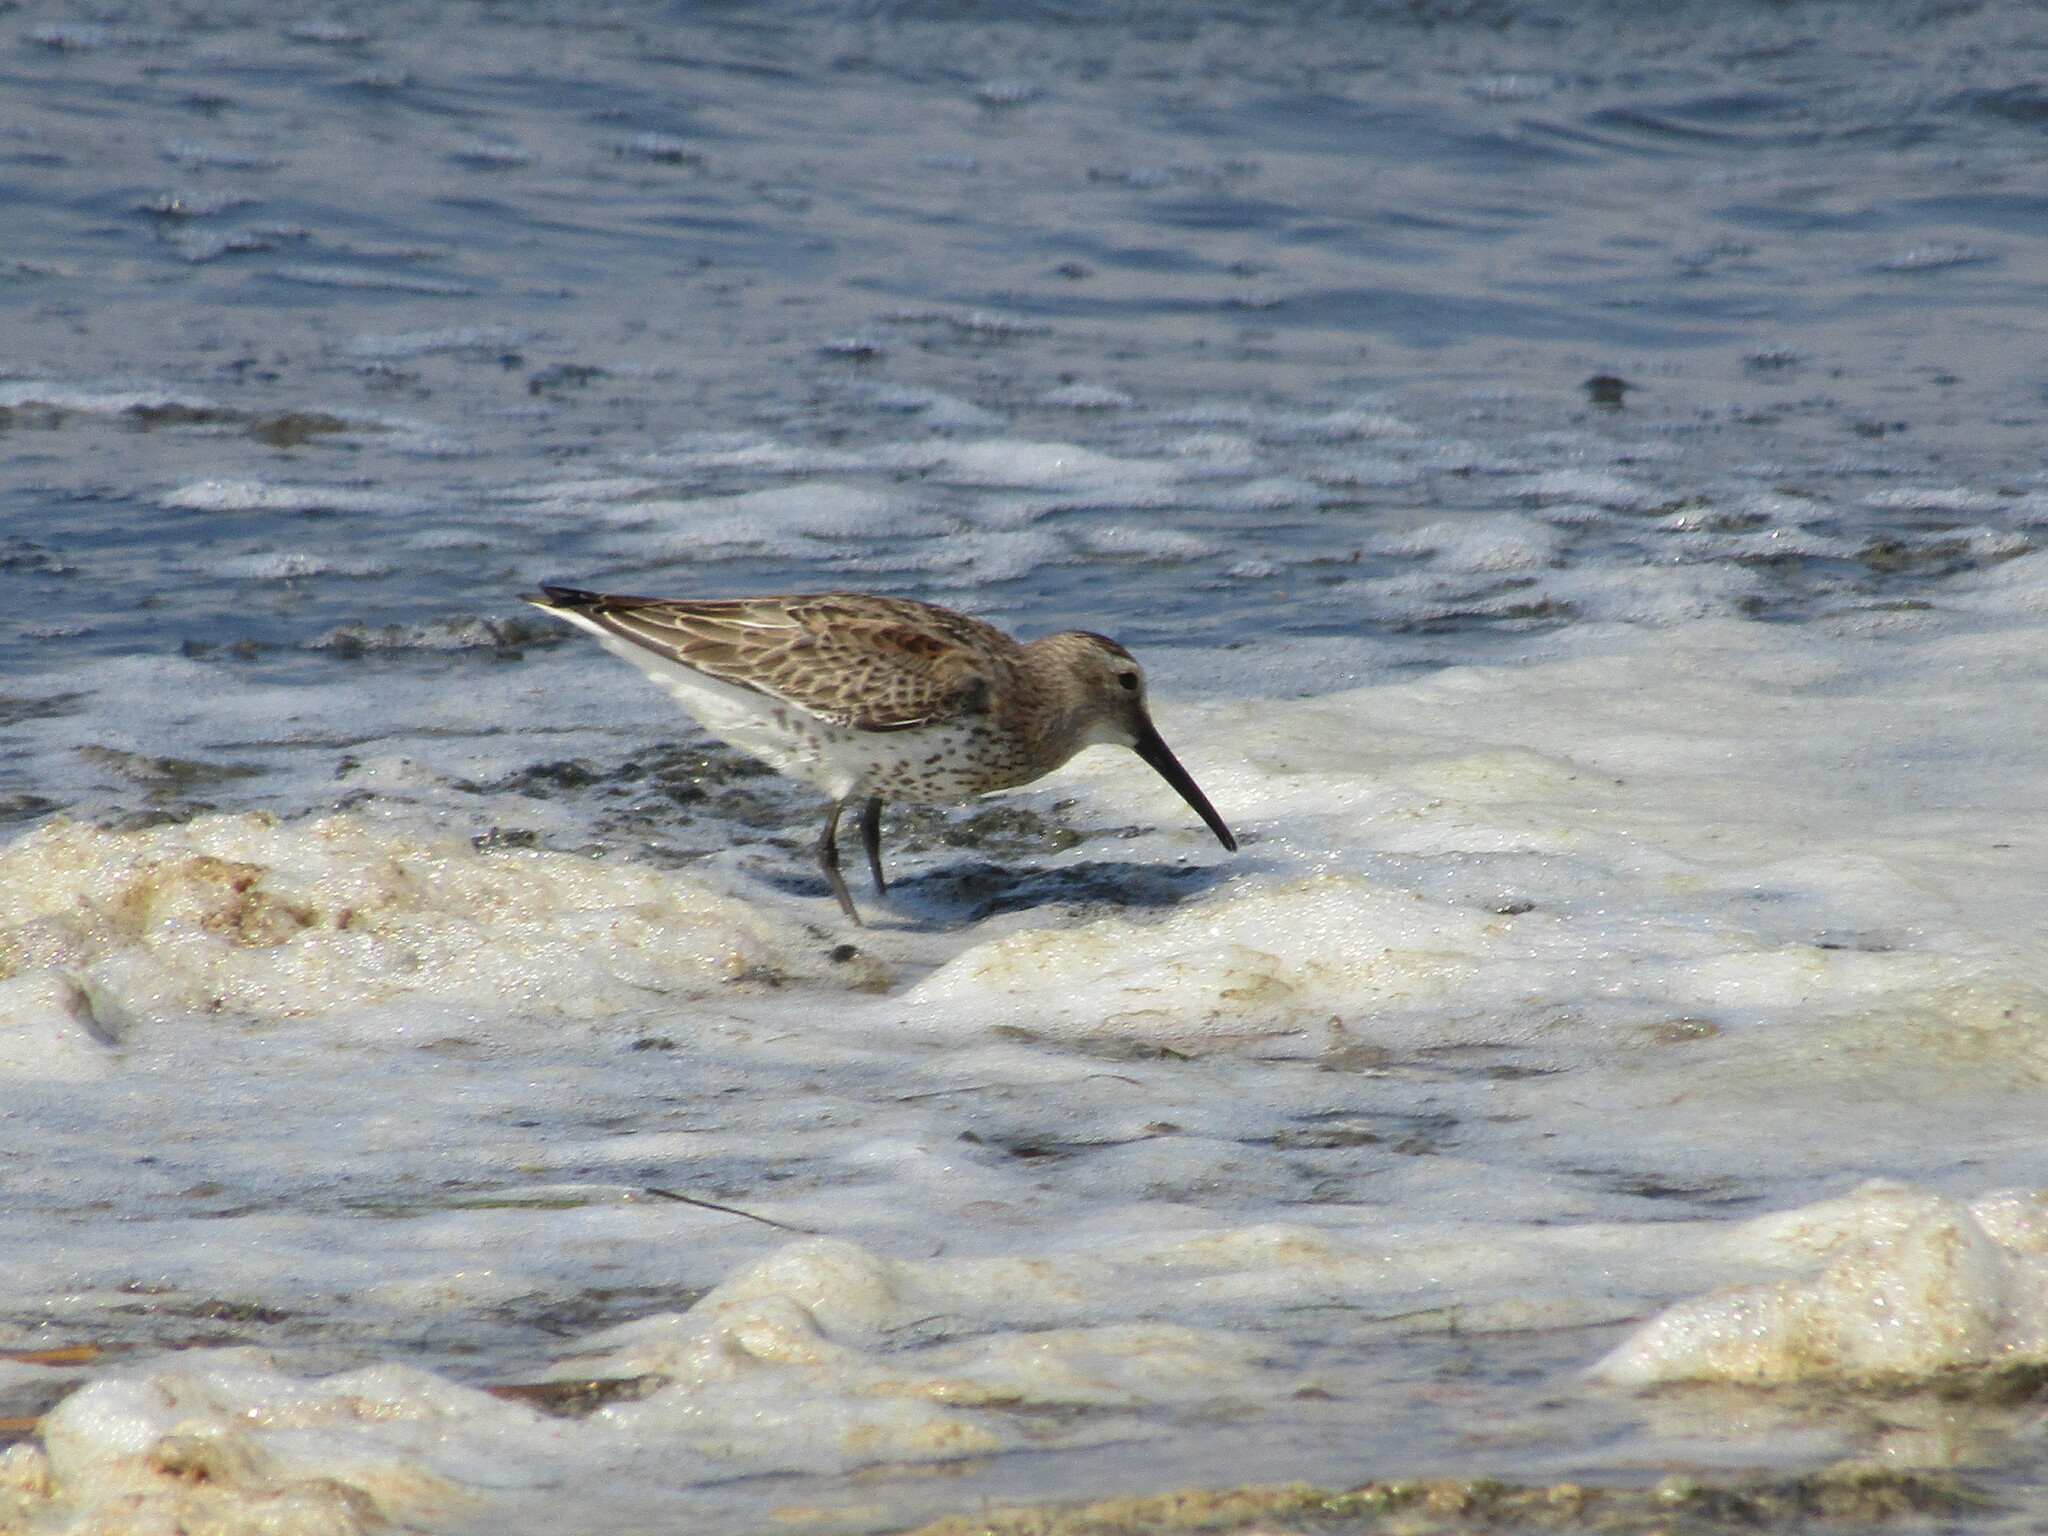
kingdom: Animalia
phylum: Chordata
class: Aves
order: Charadriiformes
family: Scolopacidae
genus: Calidris
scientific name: Calidris alpina
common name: Dunlin
